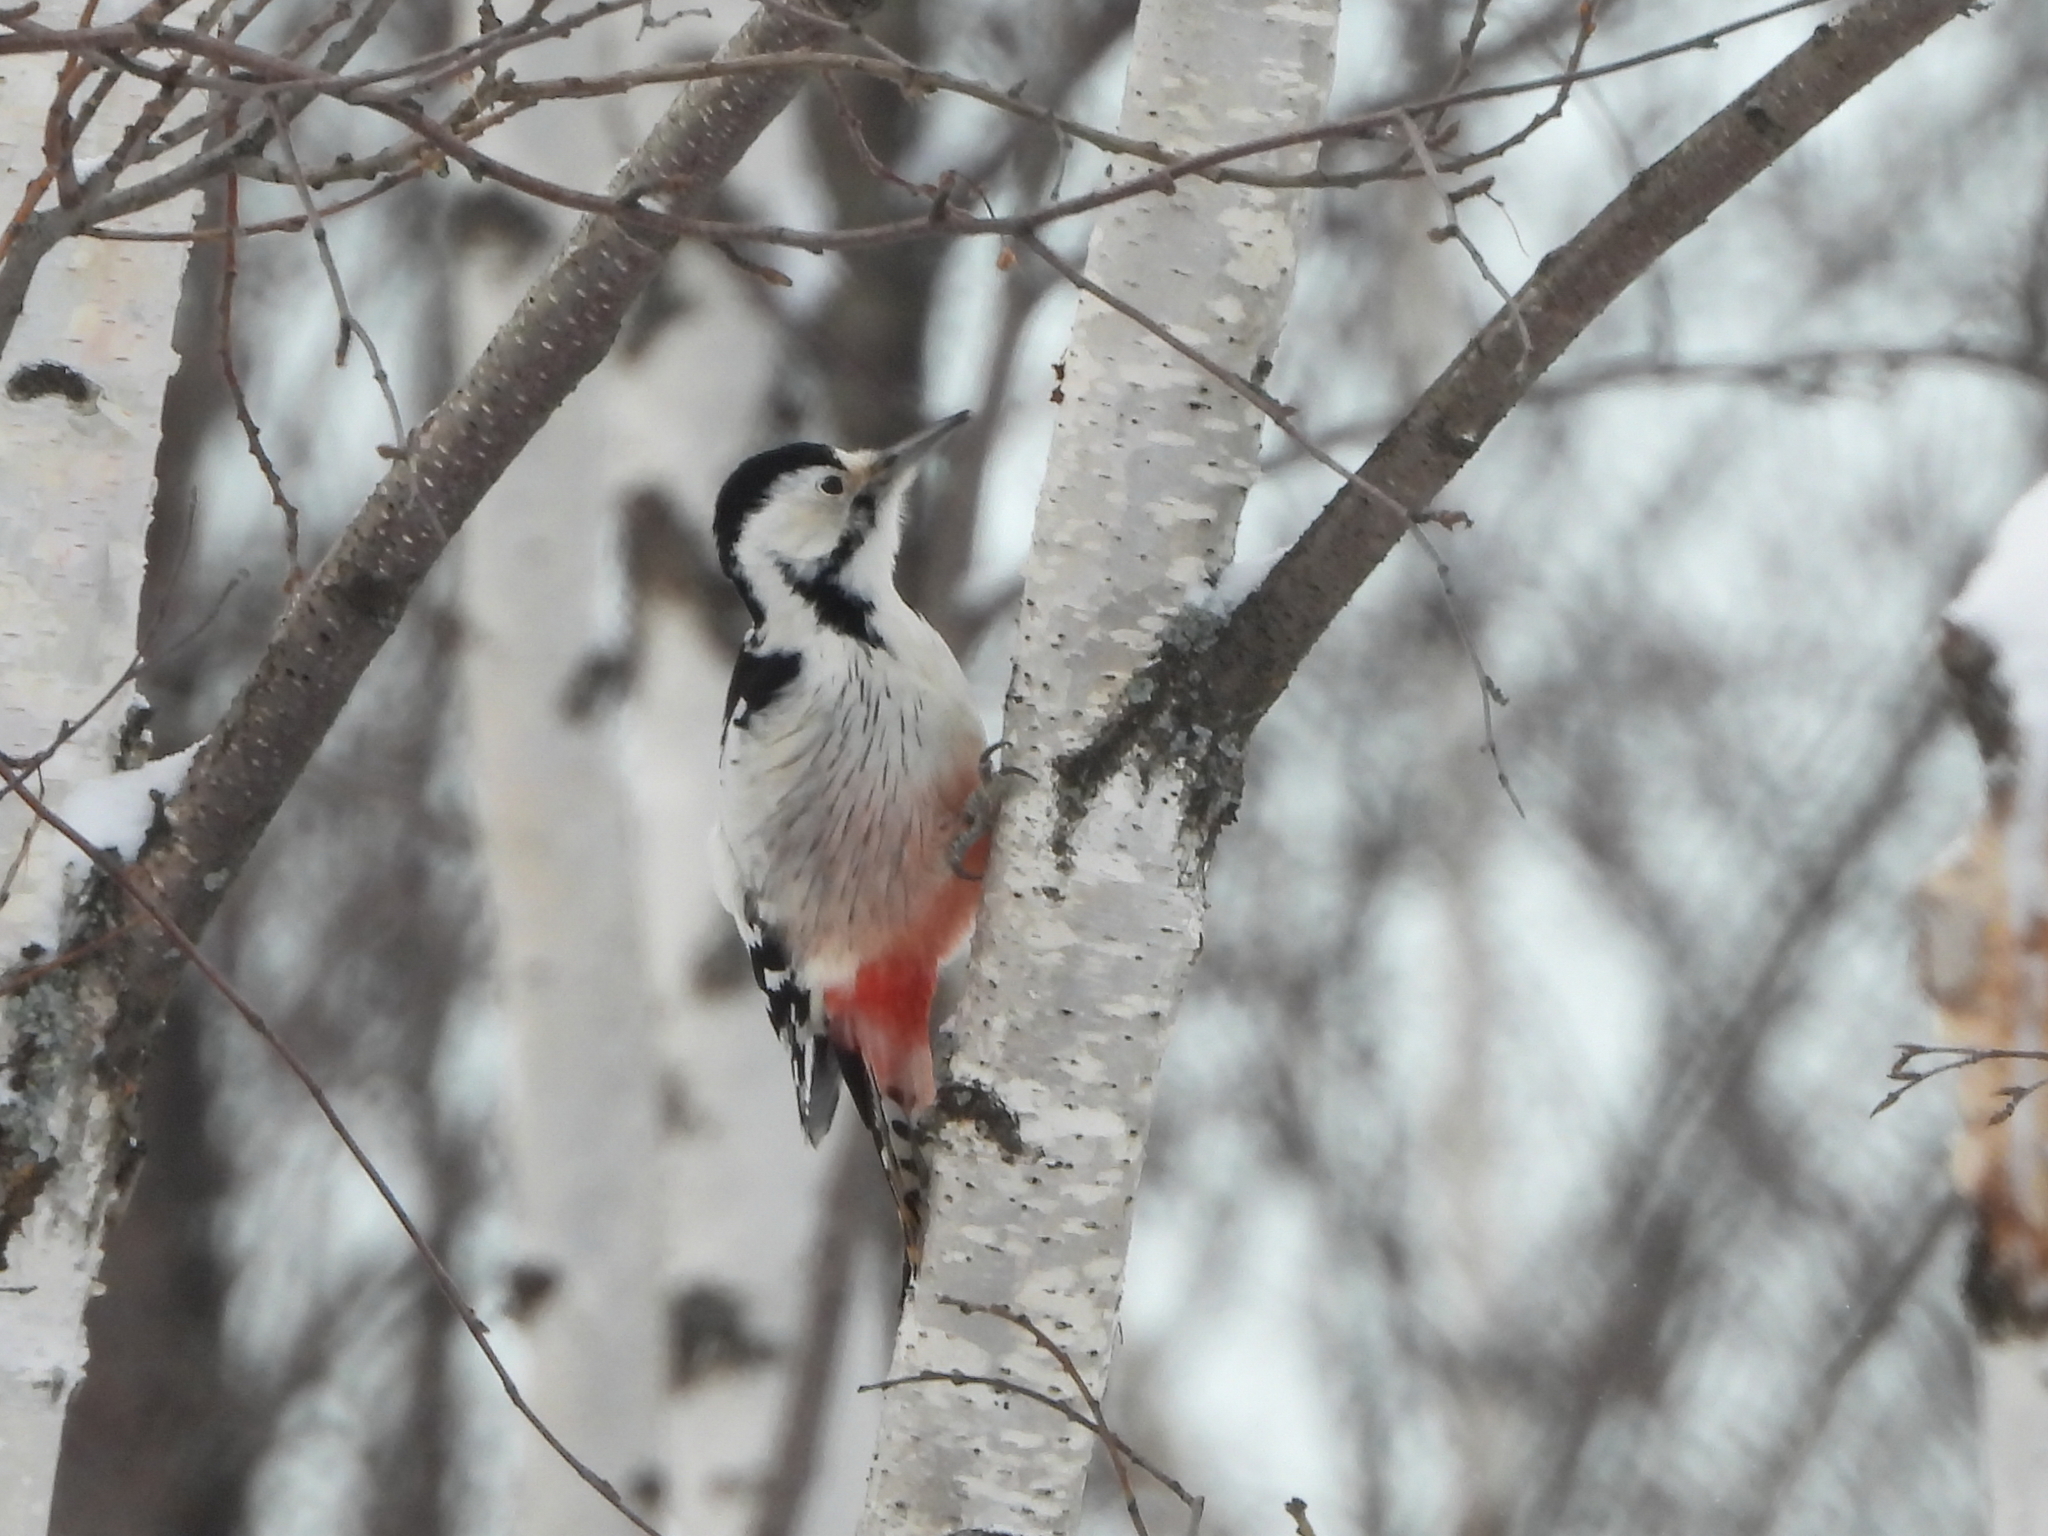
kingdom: Animalia
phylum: Chordata
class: Aves
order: Piciformes
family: Picidae
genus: Dendrocopos
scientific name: Dendrocopos leucotos
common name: White-backed woodpecker
